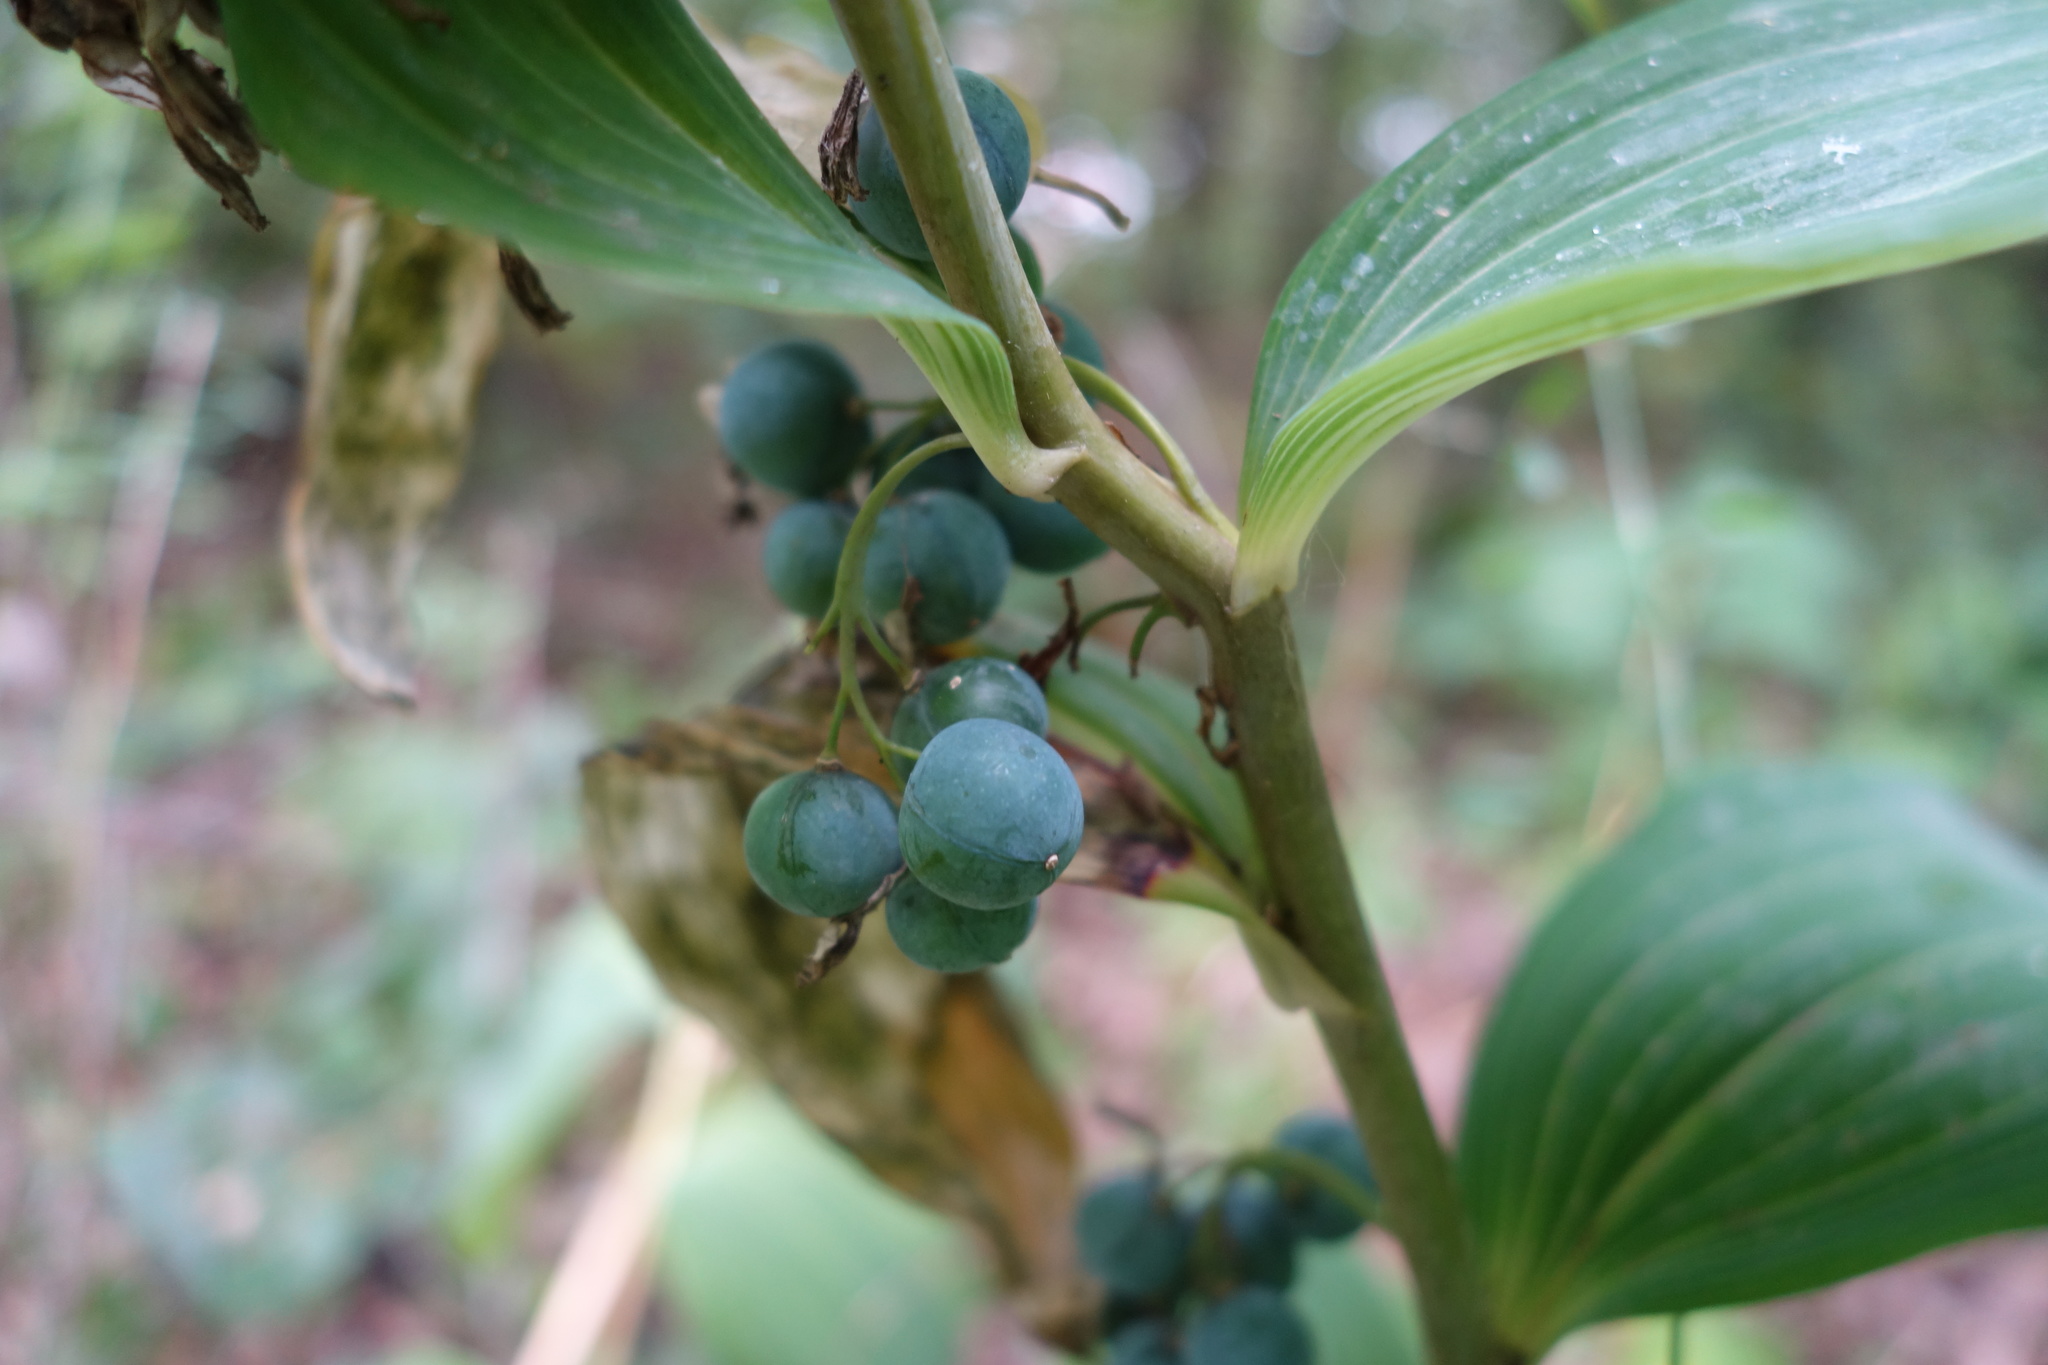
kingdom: Plantae
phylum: Tracheophyta
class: Liliopsida
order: Asparagales
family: Asparagaceae
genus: Polygonatum
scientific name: Polygonatum multiflorum
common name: Solomon's-seal
